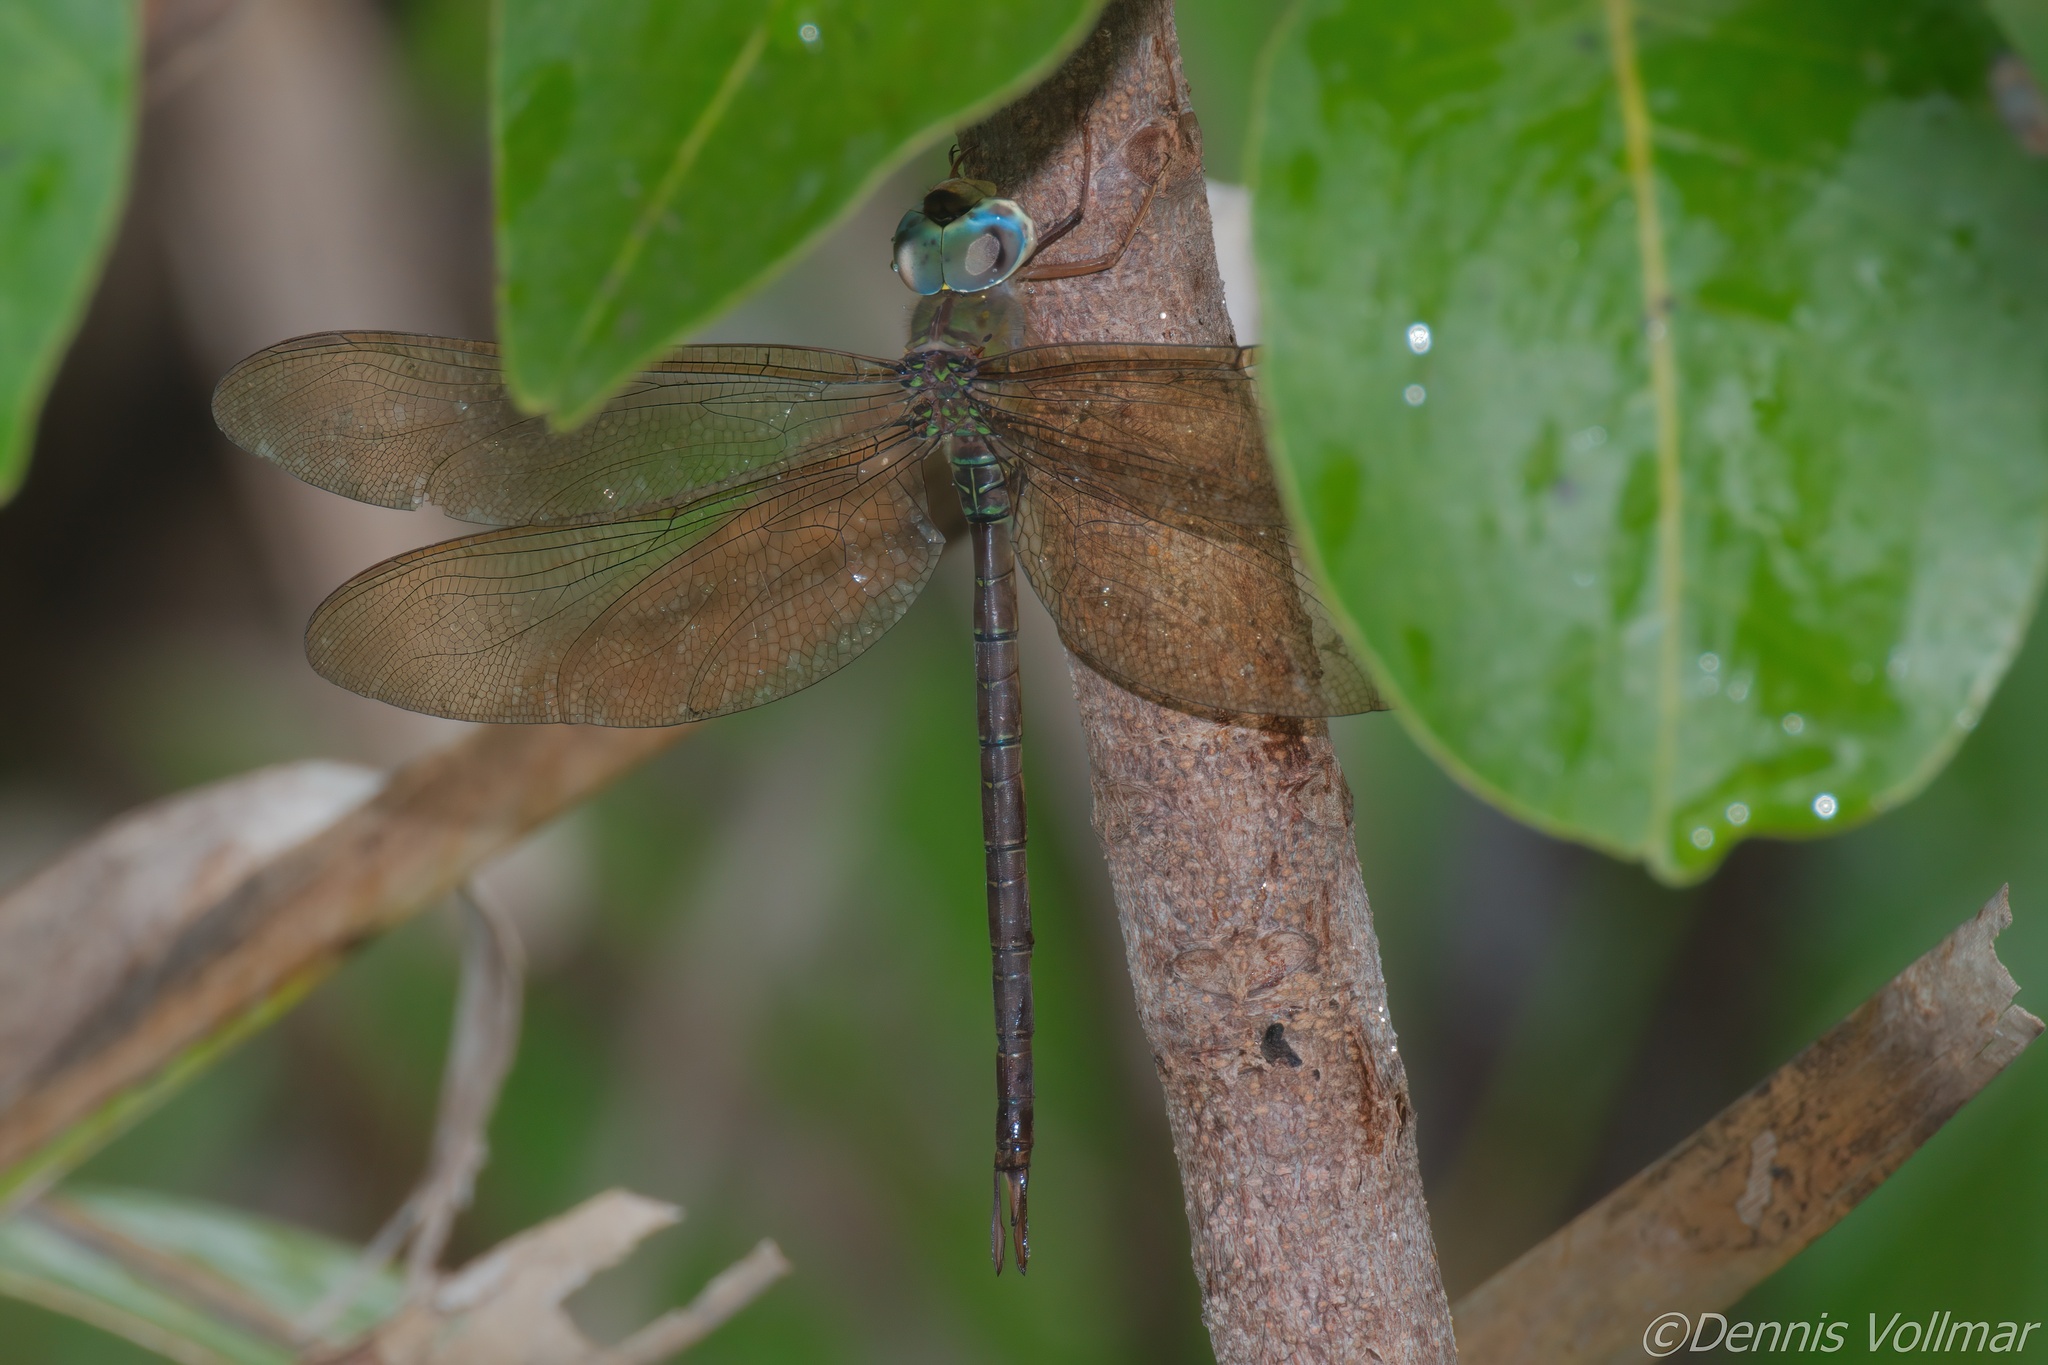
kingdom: Animalia
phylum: Arthropoda
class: Insecta
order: Odonata
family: Aeshnidae
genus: Gynacantha
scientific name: Gynacantha nervosa
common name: Twilight darner
